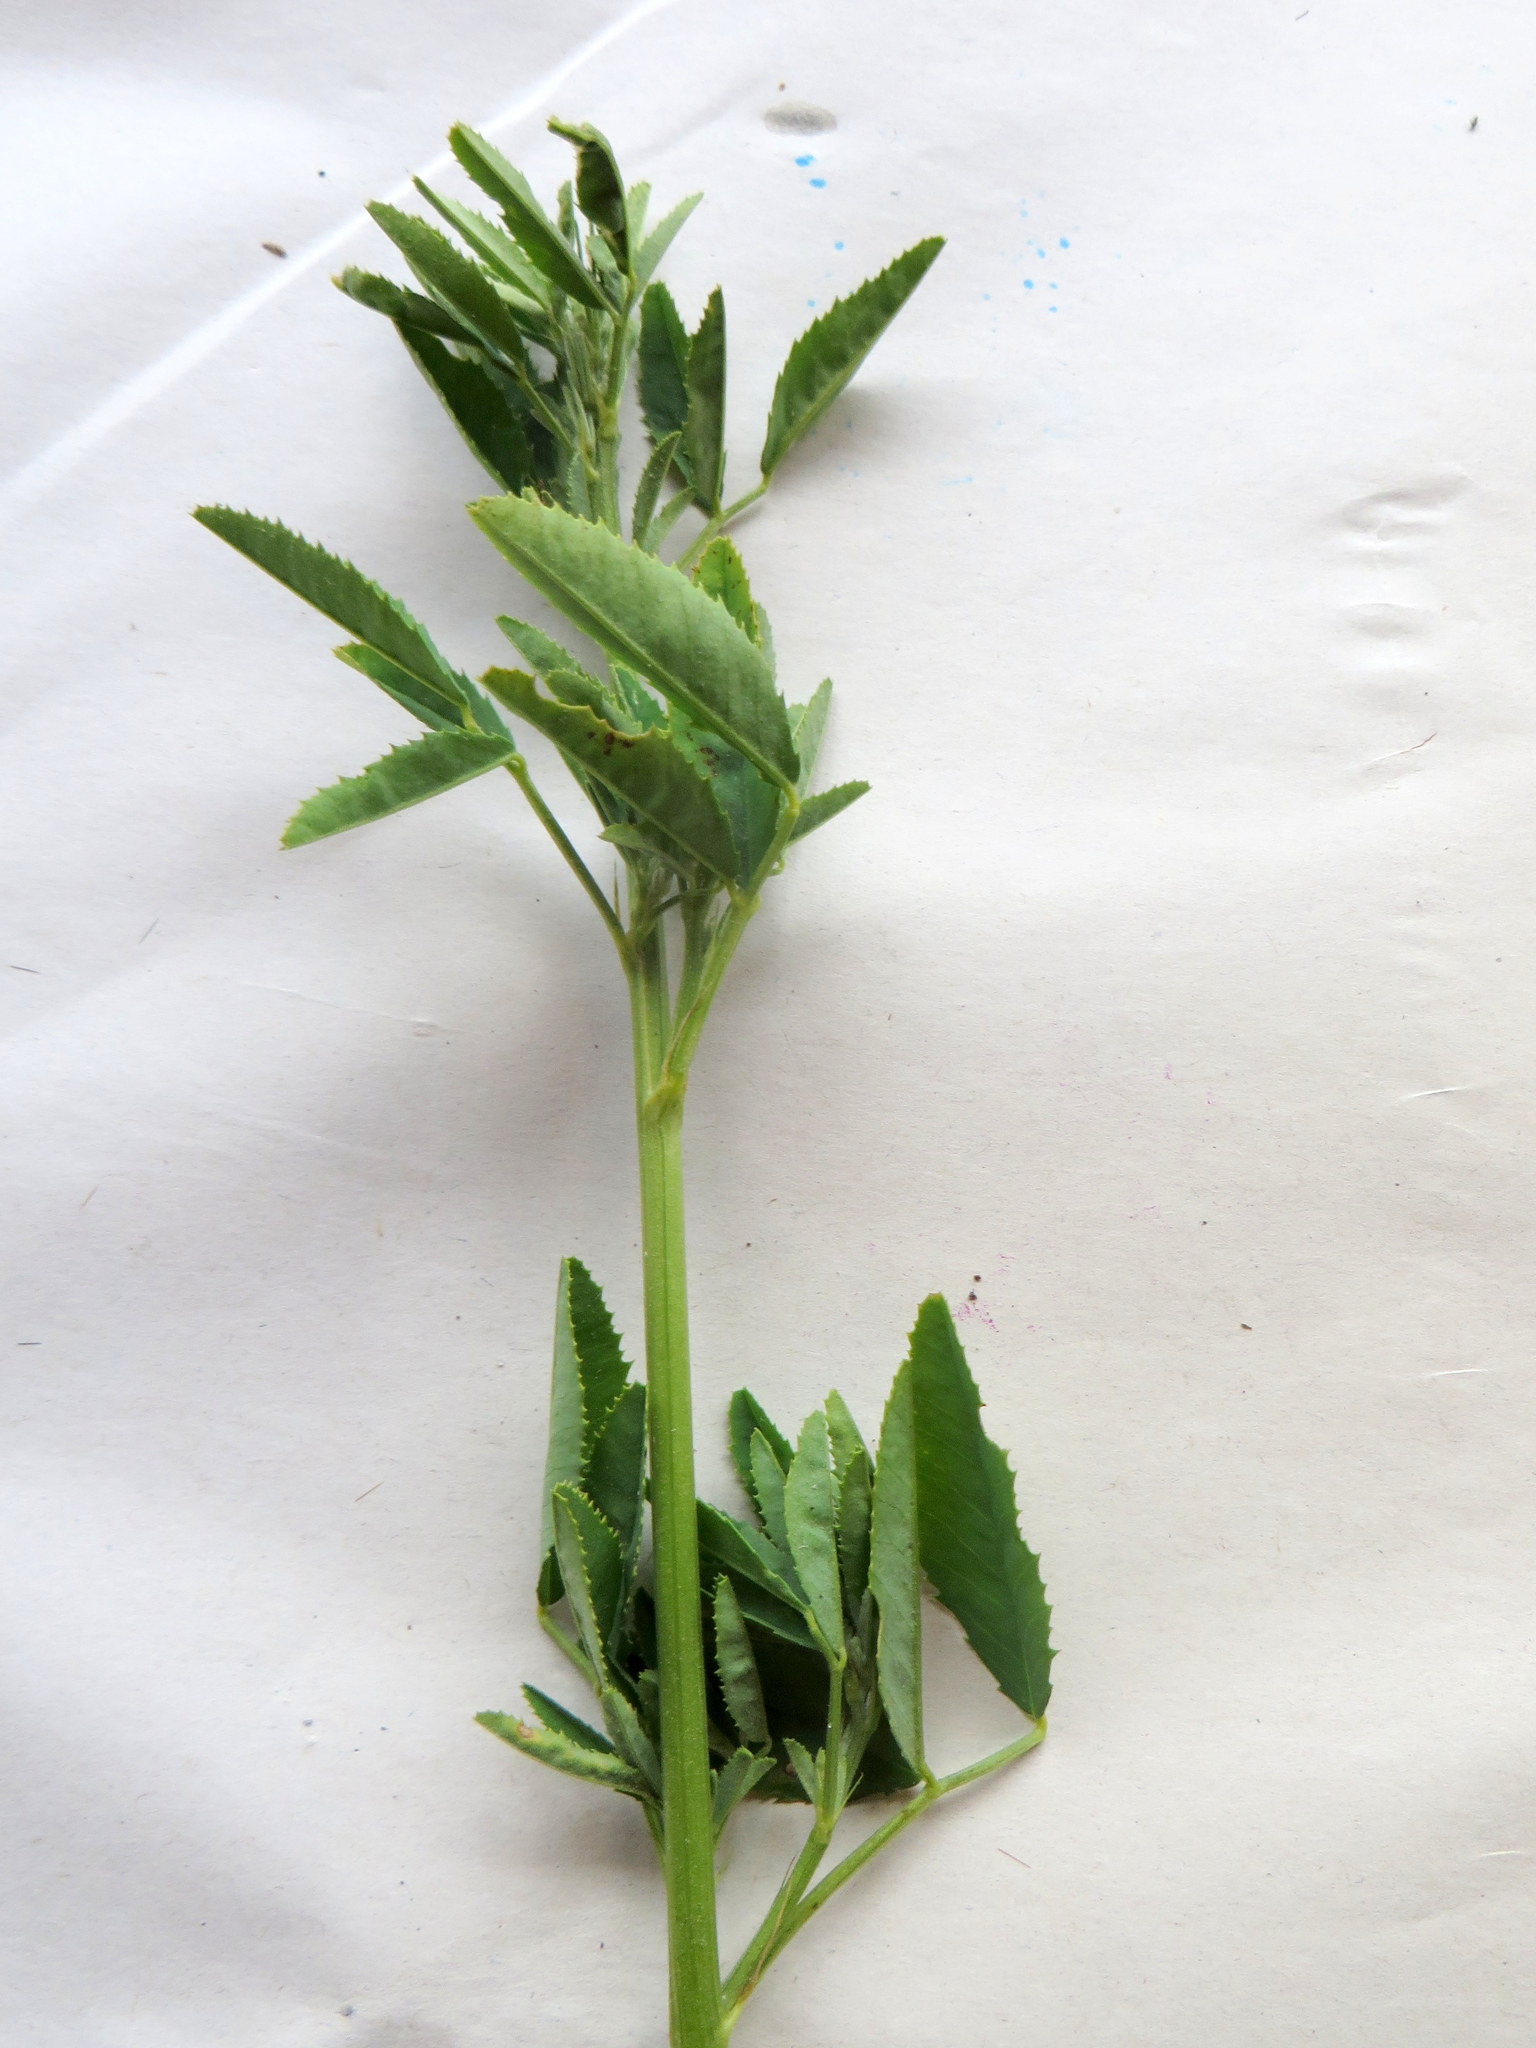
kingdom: Plantae
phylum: Tracheophyta
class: Magnoliopsida
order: Fabales
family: Fabaceae
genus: Melilotus
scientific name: Melilotus
